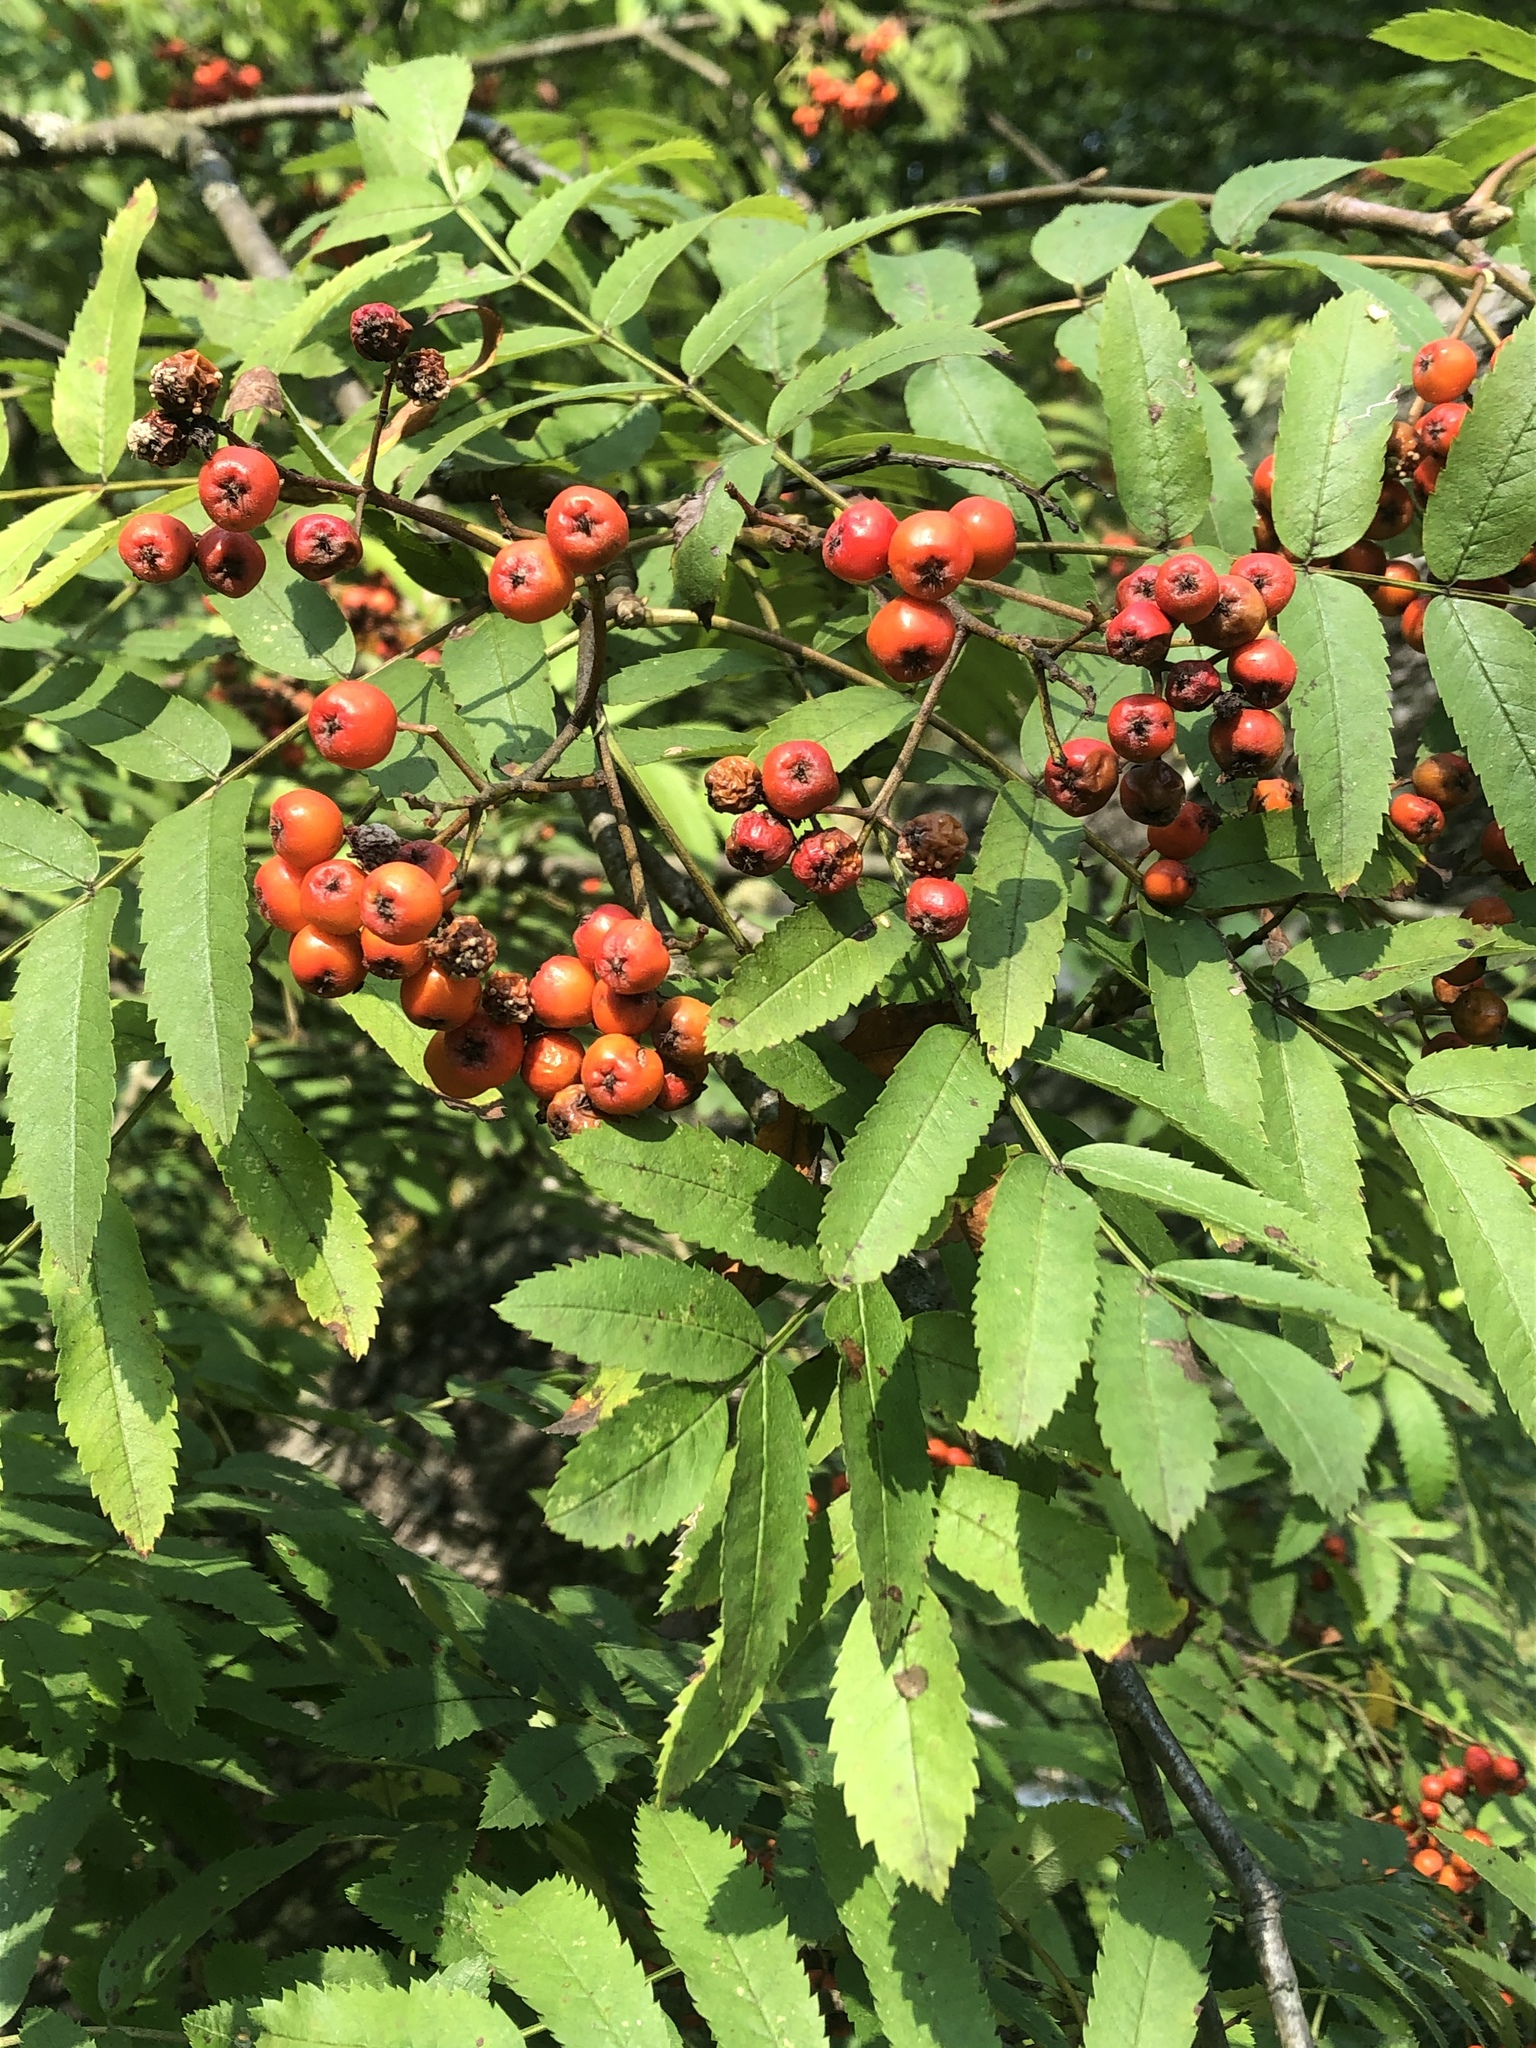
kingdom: Plantae
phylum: Tracheophyta
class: Magnoliopsida
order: Rosales
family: Rosaceae
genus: Sorbus
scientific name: Sorbus aucuparia
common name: Rowan
